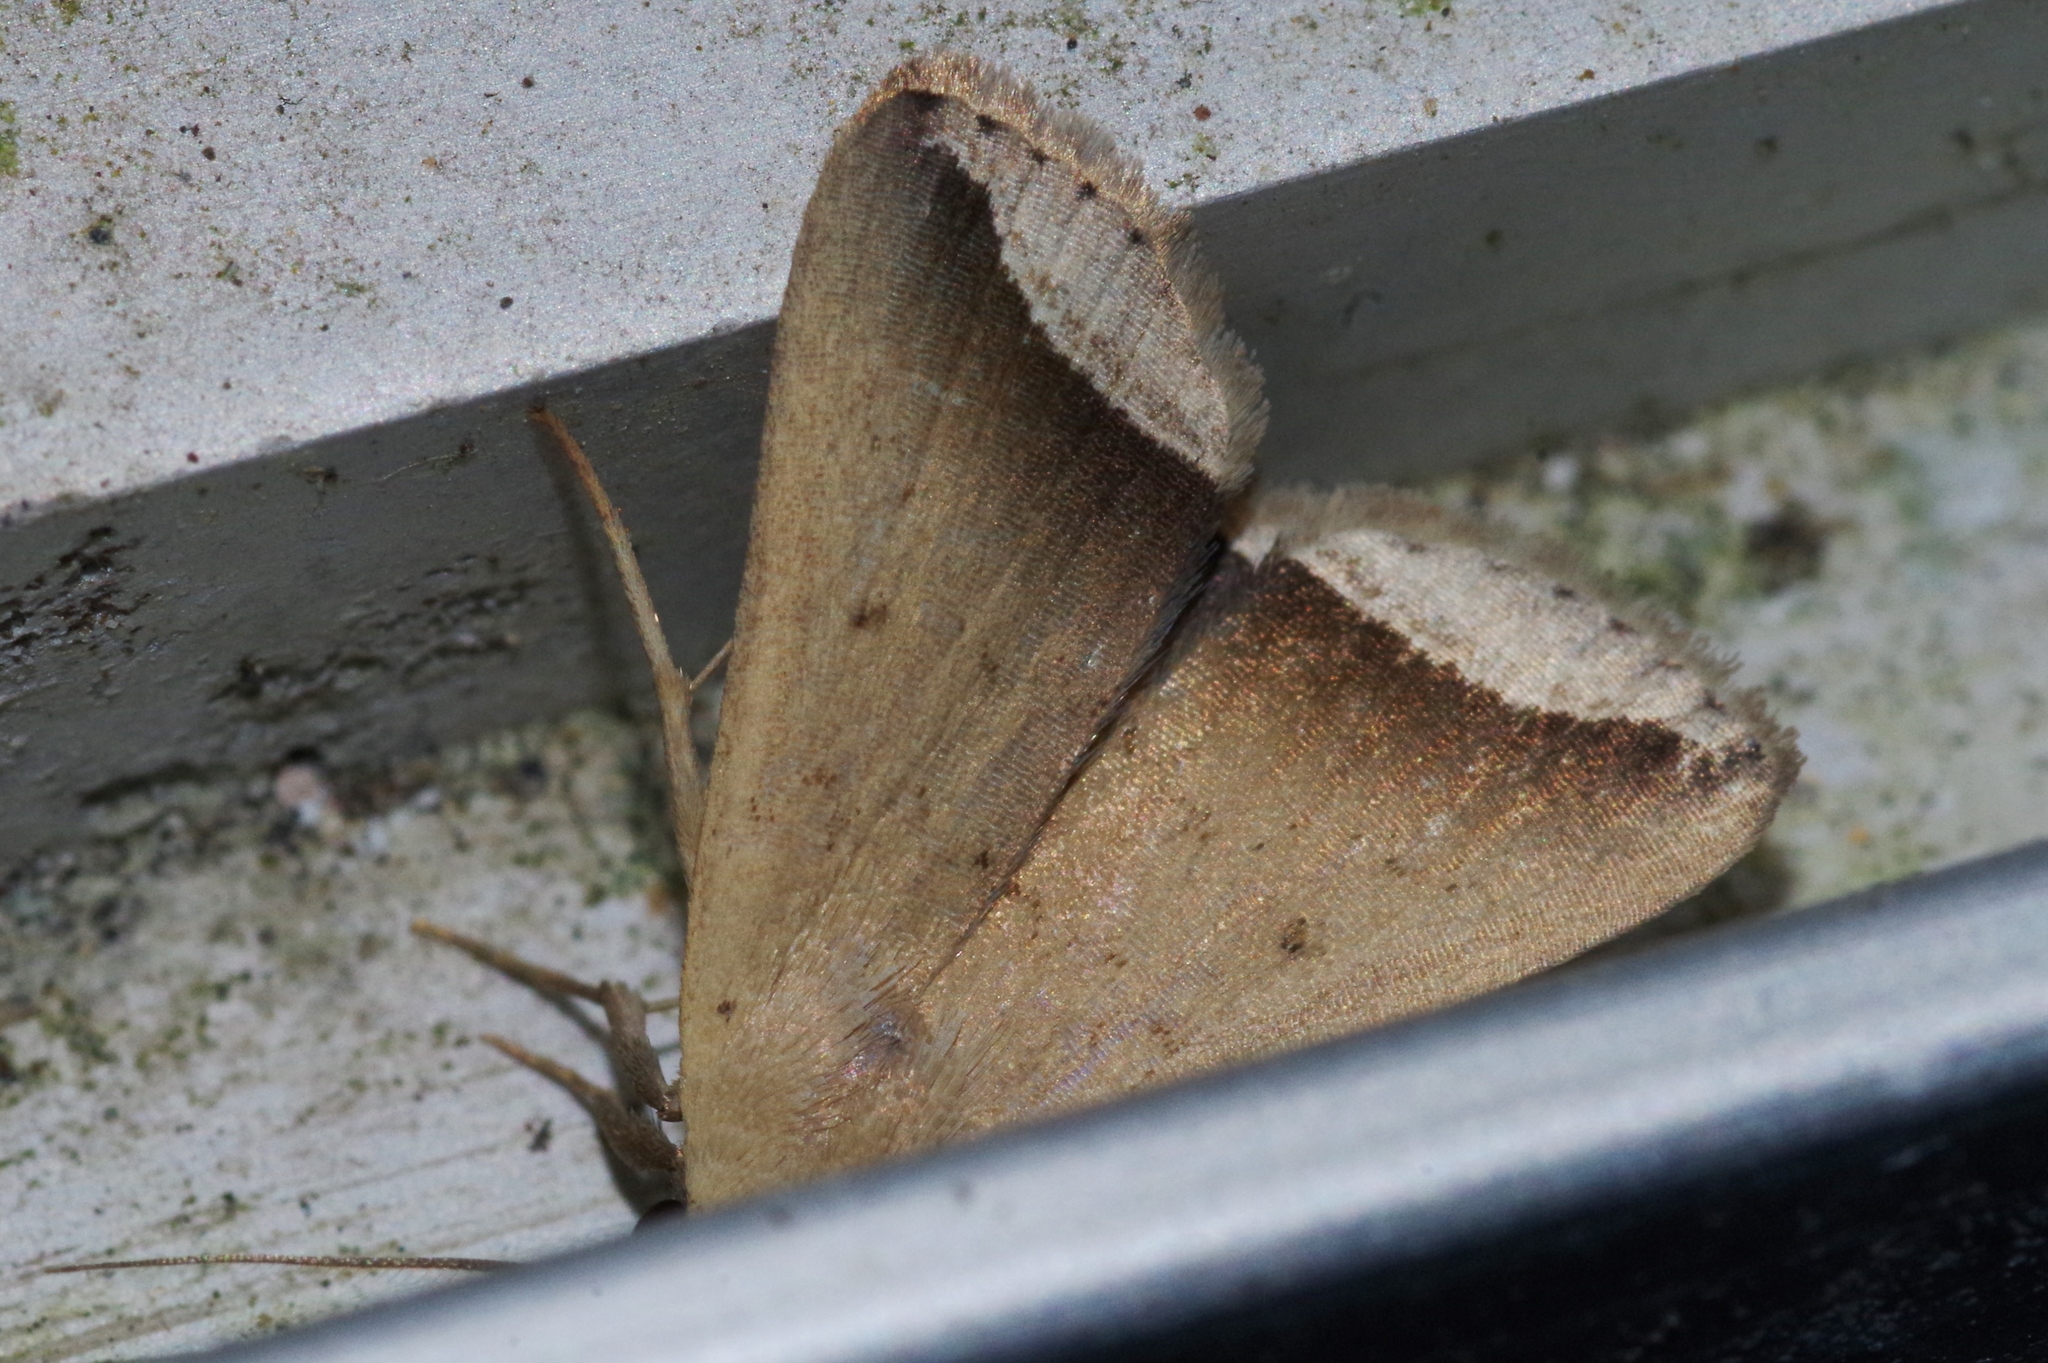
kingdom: Animalia
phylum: Arthropoda
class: Insecta
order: Lepidoptera
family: Erebidae
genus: Simplicia
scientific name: Simplicia mistacalis
